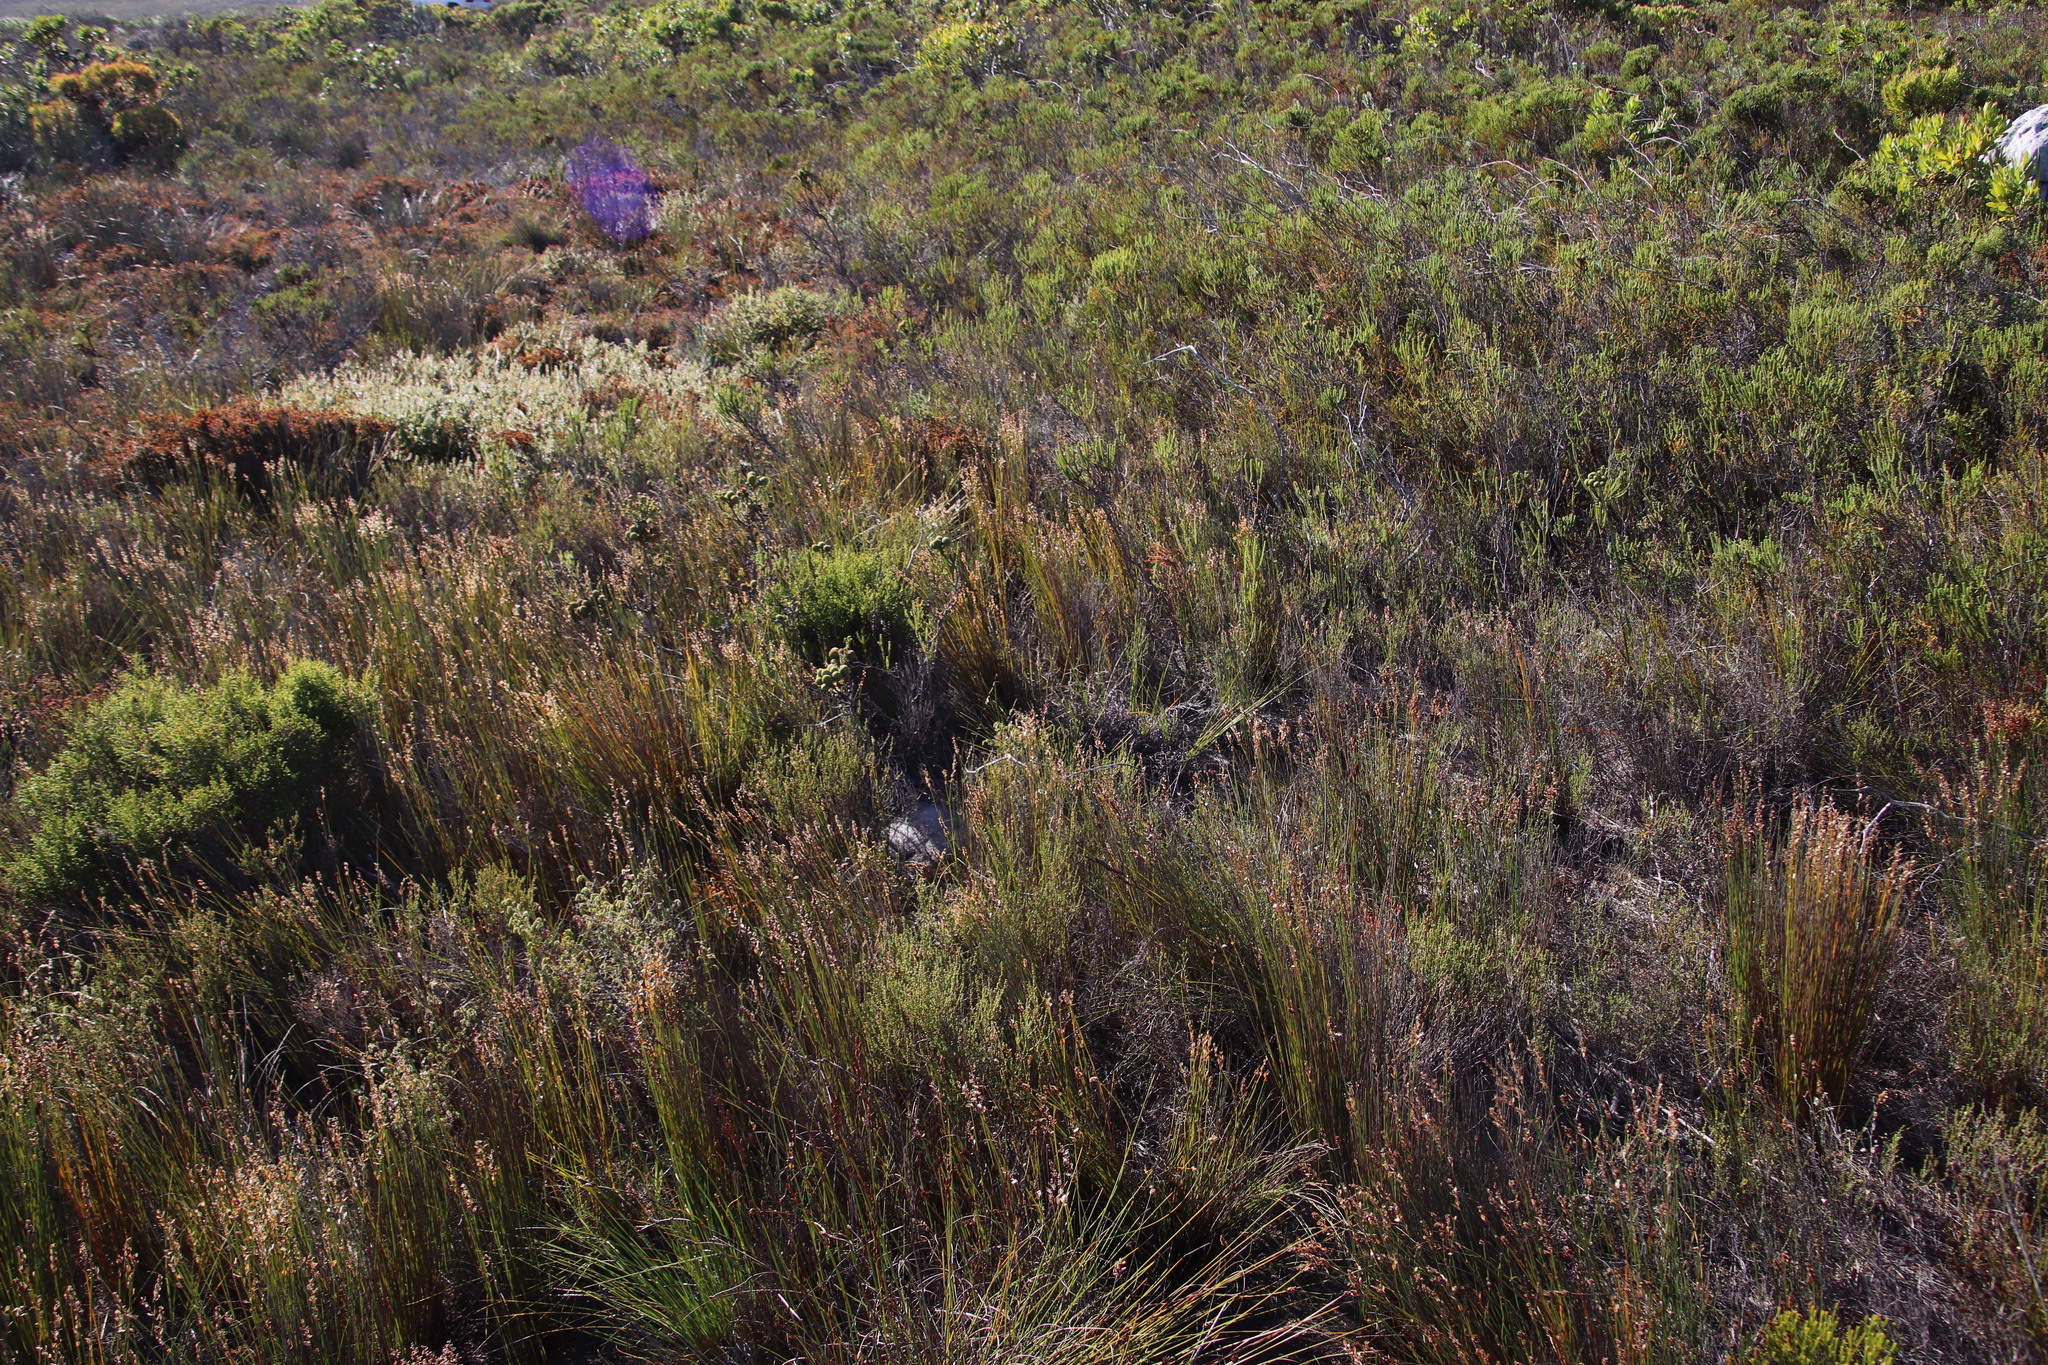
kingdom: Plantae
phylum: Tracheophyta
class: Liliopsida
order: Poales
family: Restionaceae
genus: Elegia
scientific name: Elegia filacea
